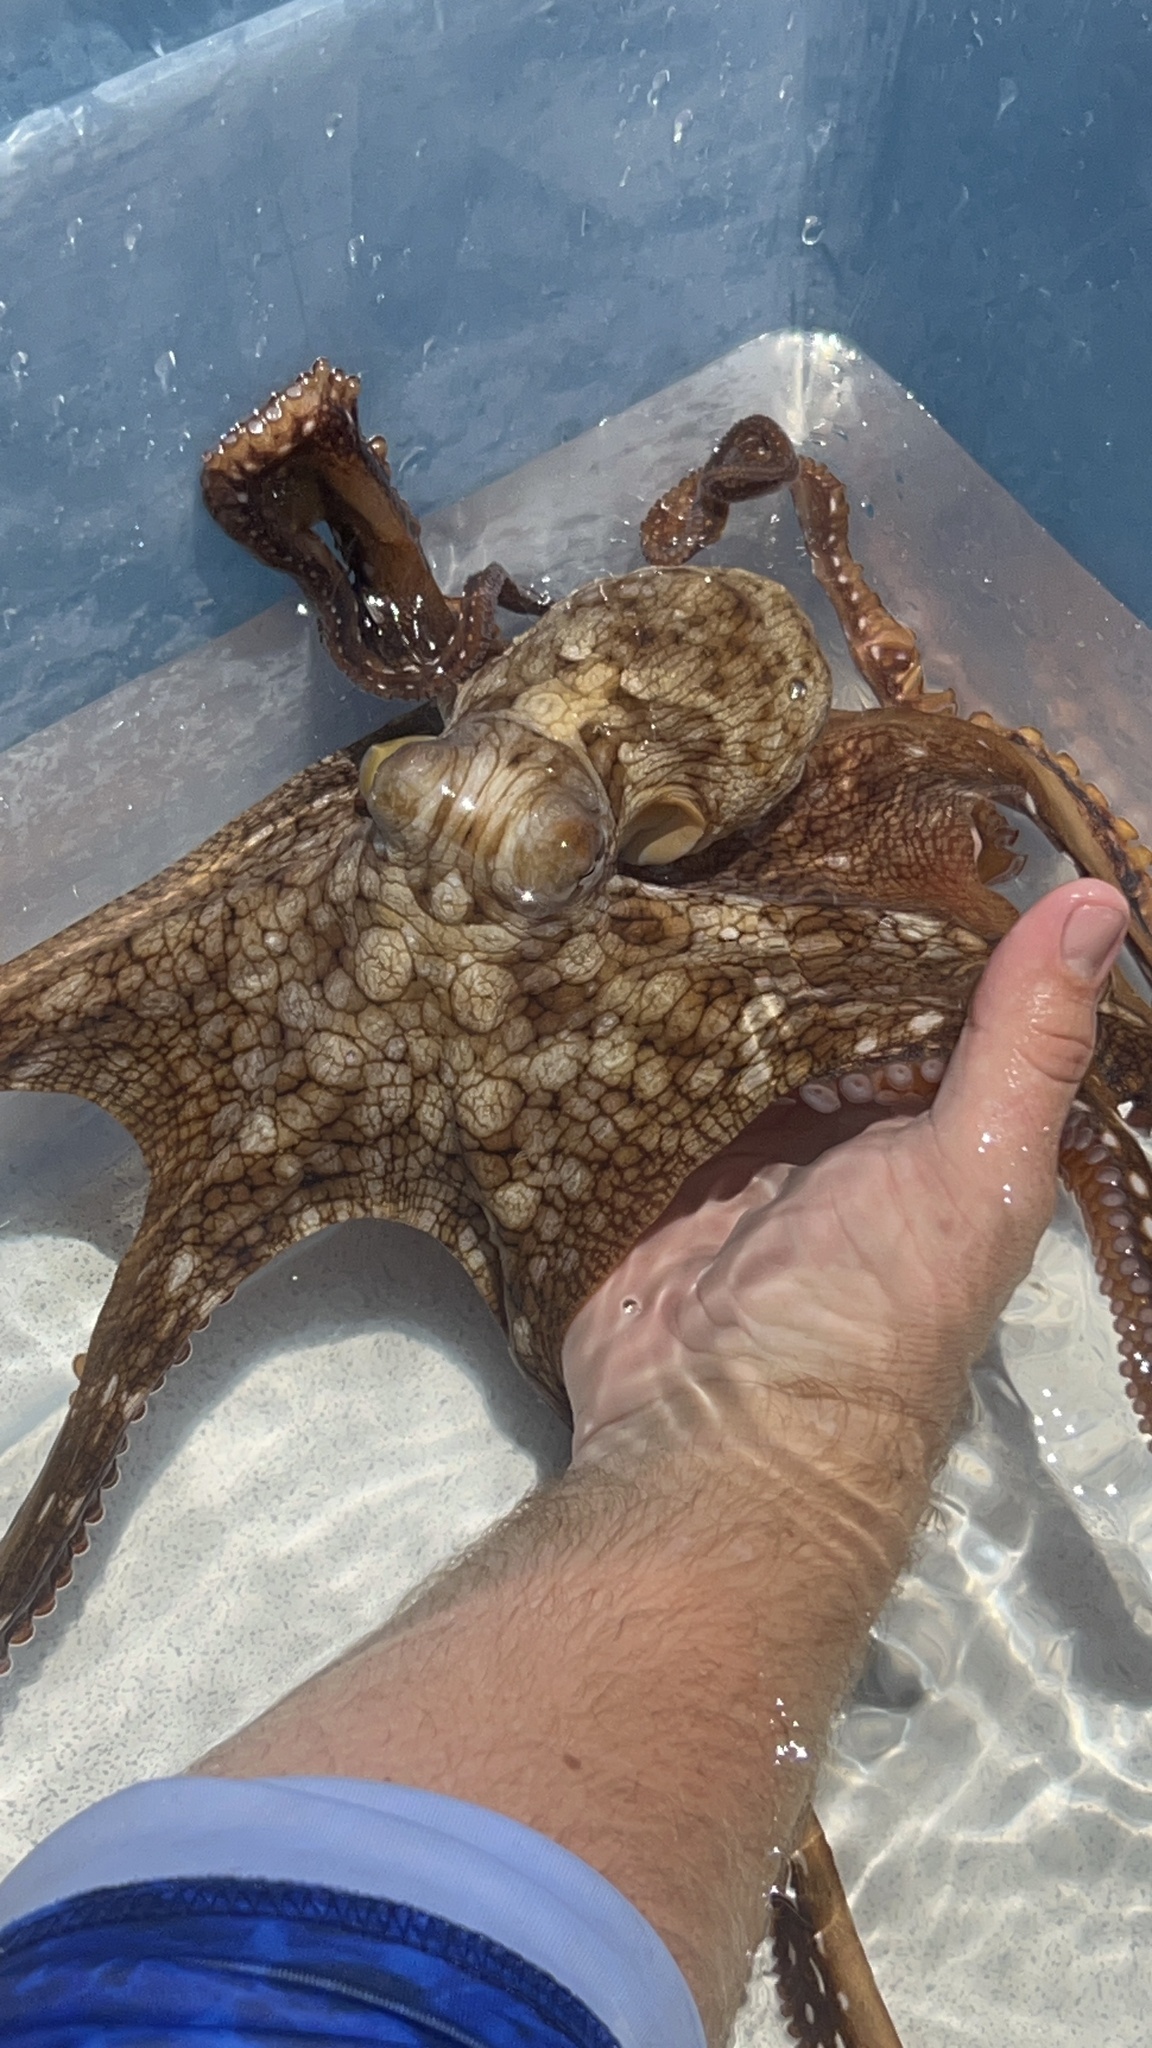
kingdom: Animalia
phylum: Mollusca
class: Cephalopoda
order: Octopoda
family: Octopodidae
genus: Octopus
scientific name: Octopus cyanea
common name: Cyane's octopus
